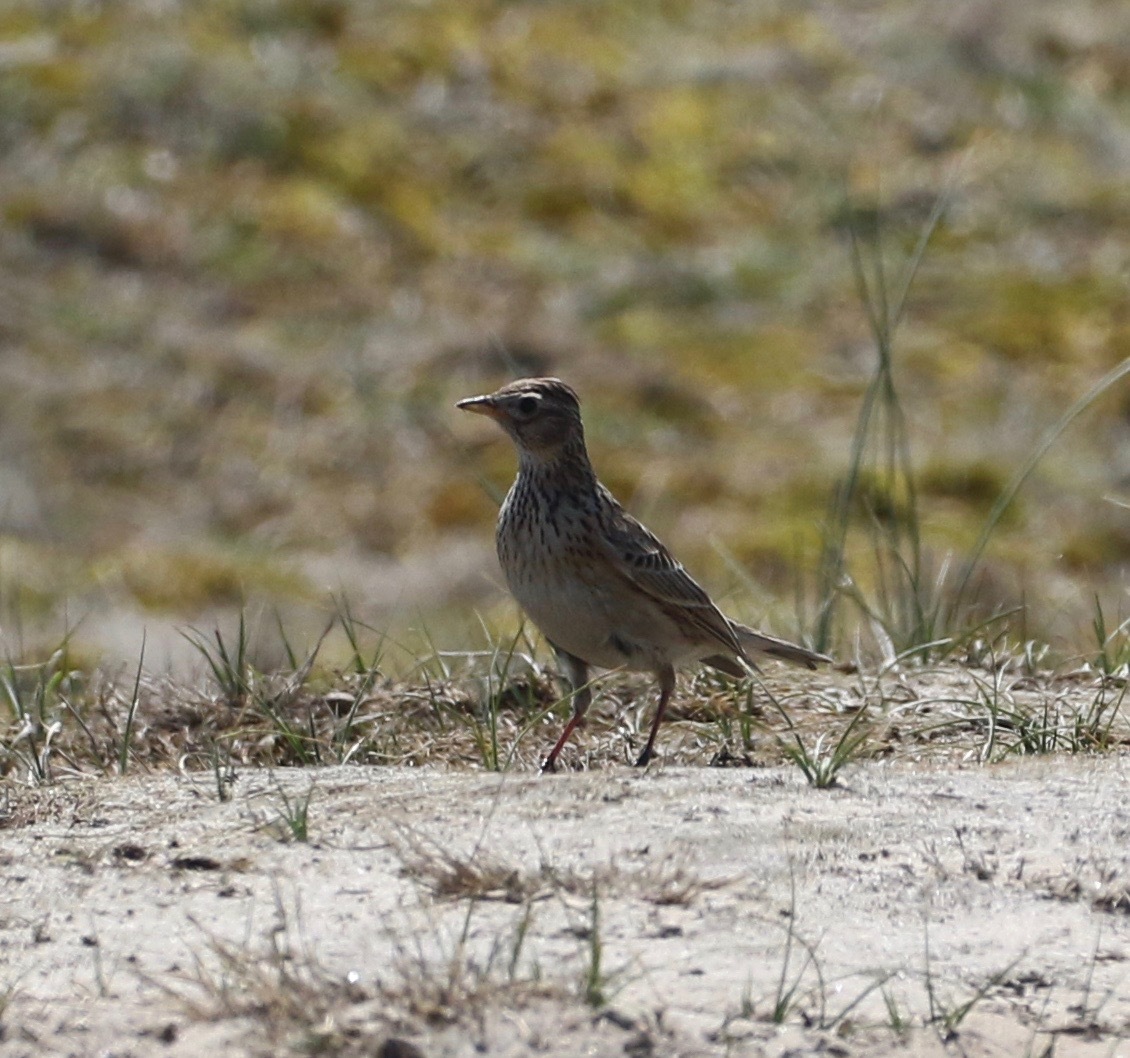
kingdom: Animalia
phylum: Chordata
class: Aves
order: Passeriformes
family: Alaudidae
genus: Alauda
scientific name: Alauda arvensis
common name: Eurasian skylark
